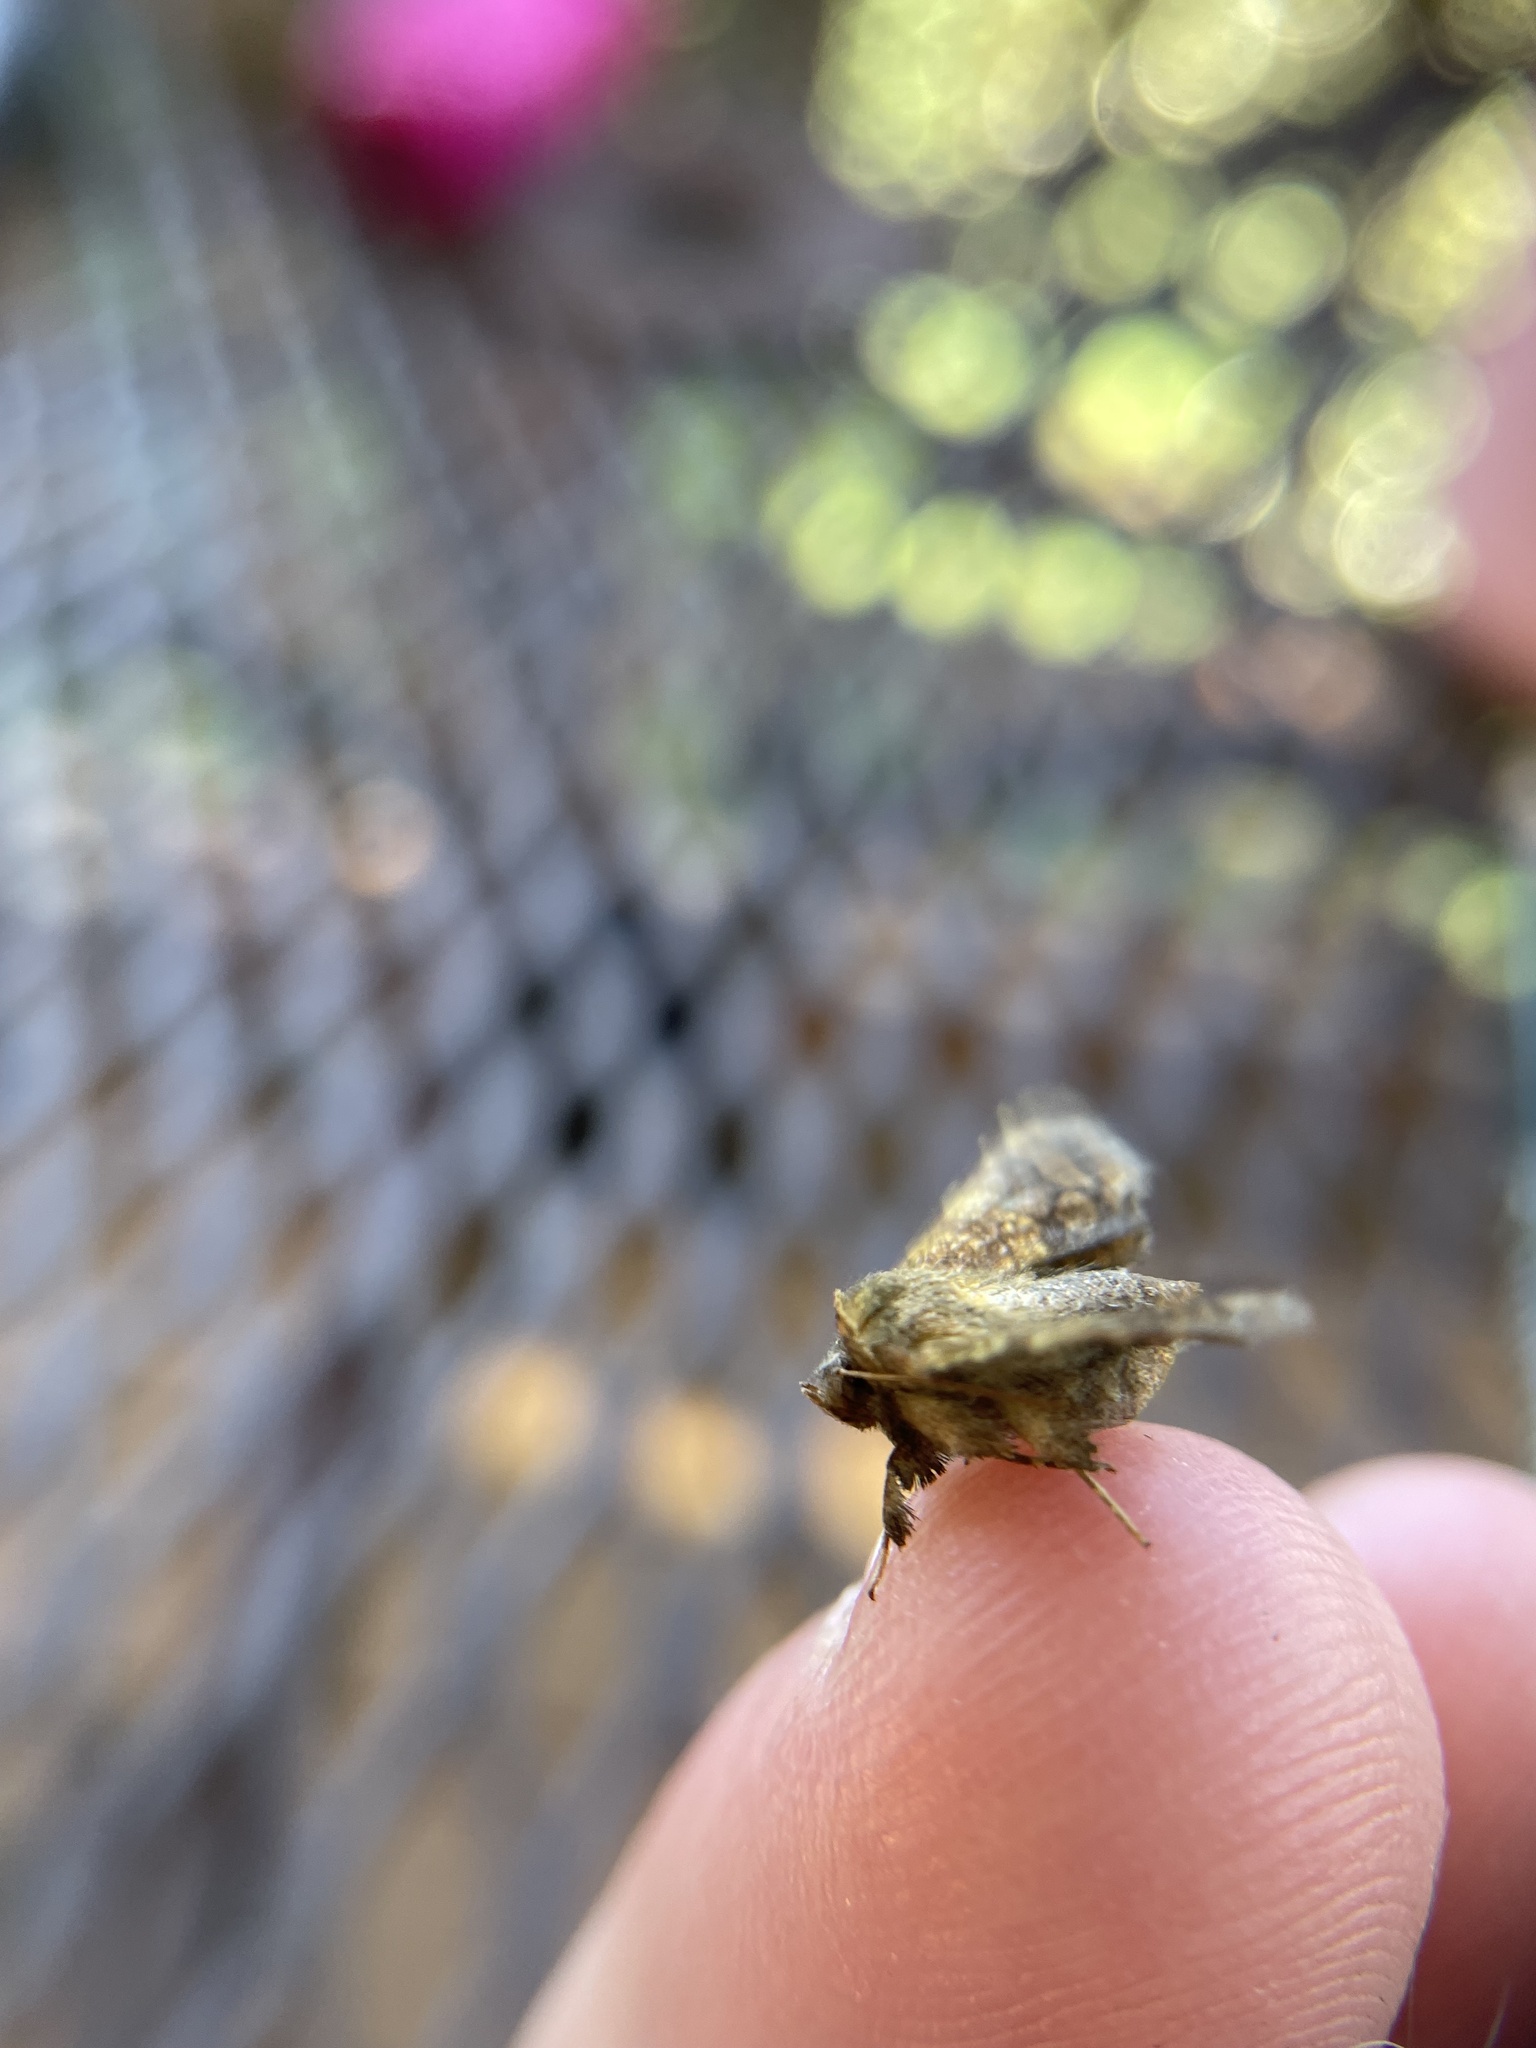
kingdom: Animalia
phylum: Arthropoda
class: Insecta
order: Lepidoptera
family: Thyrididae
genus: Dysodia
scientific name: Dysodia oculatana
